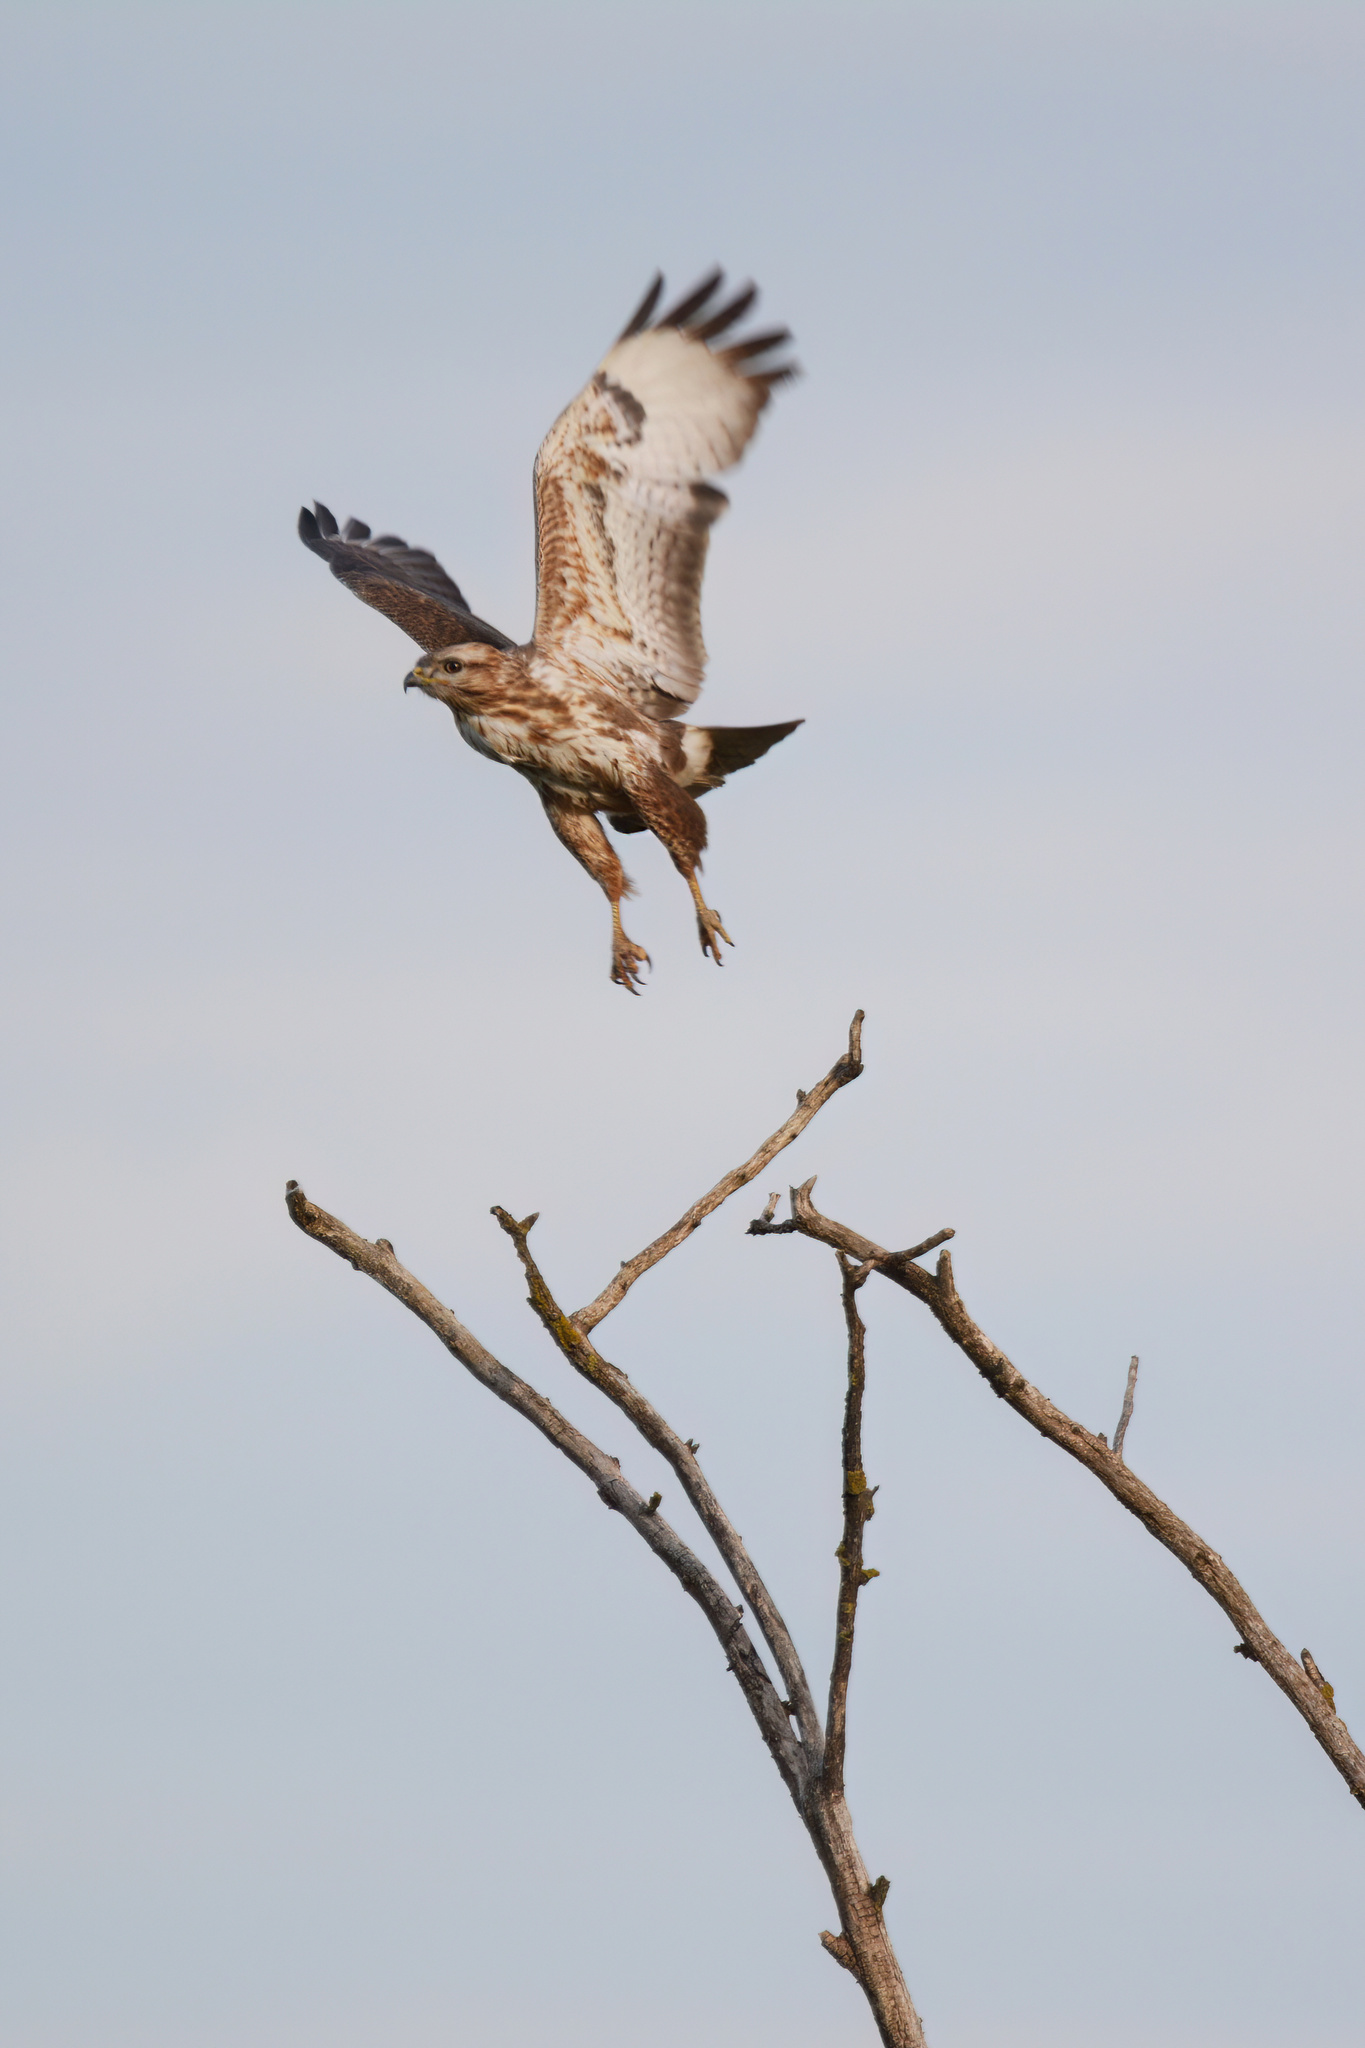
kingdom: Animalia
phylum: Chordata
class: Aves
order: Accipitriformes
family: Accipitridae
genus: Buteo
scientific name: Buteo buteo
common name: Common buzzard
